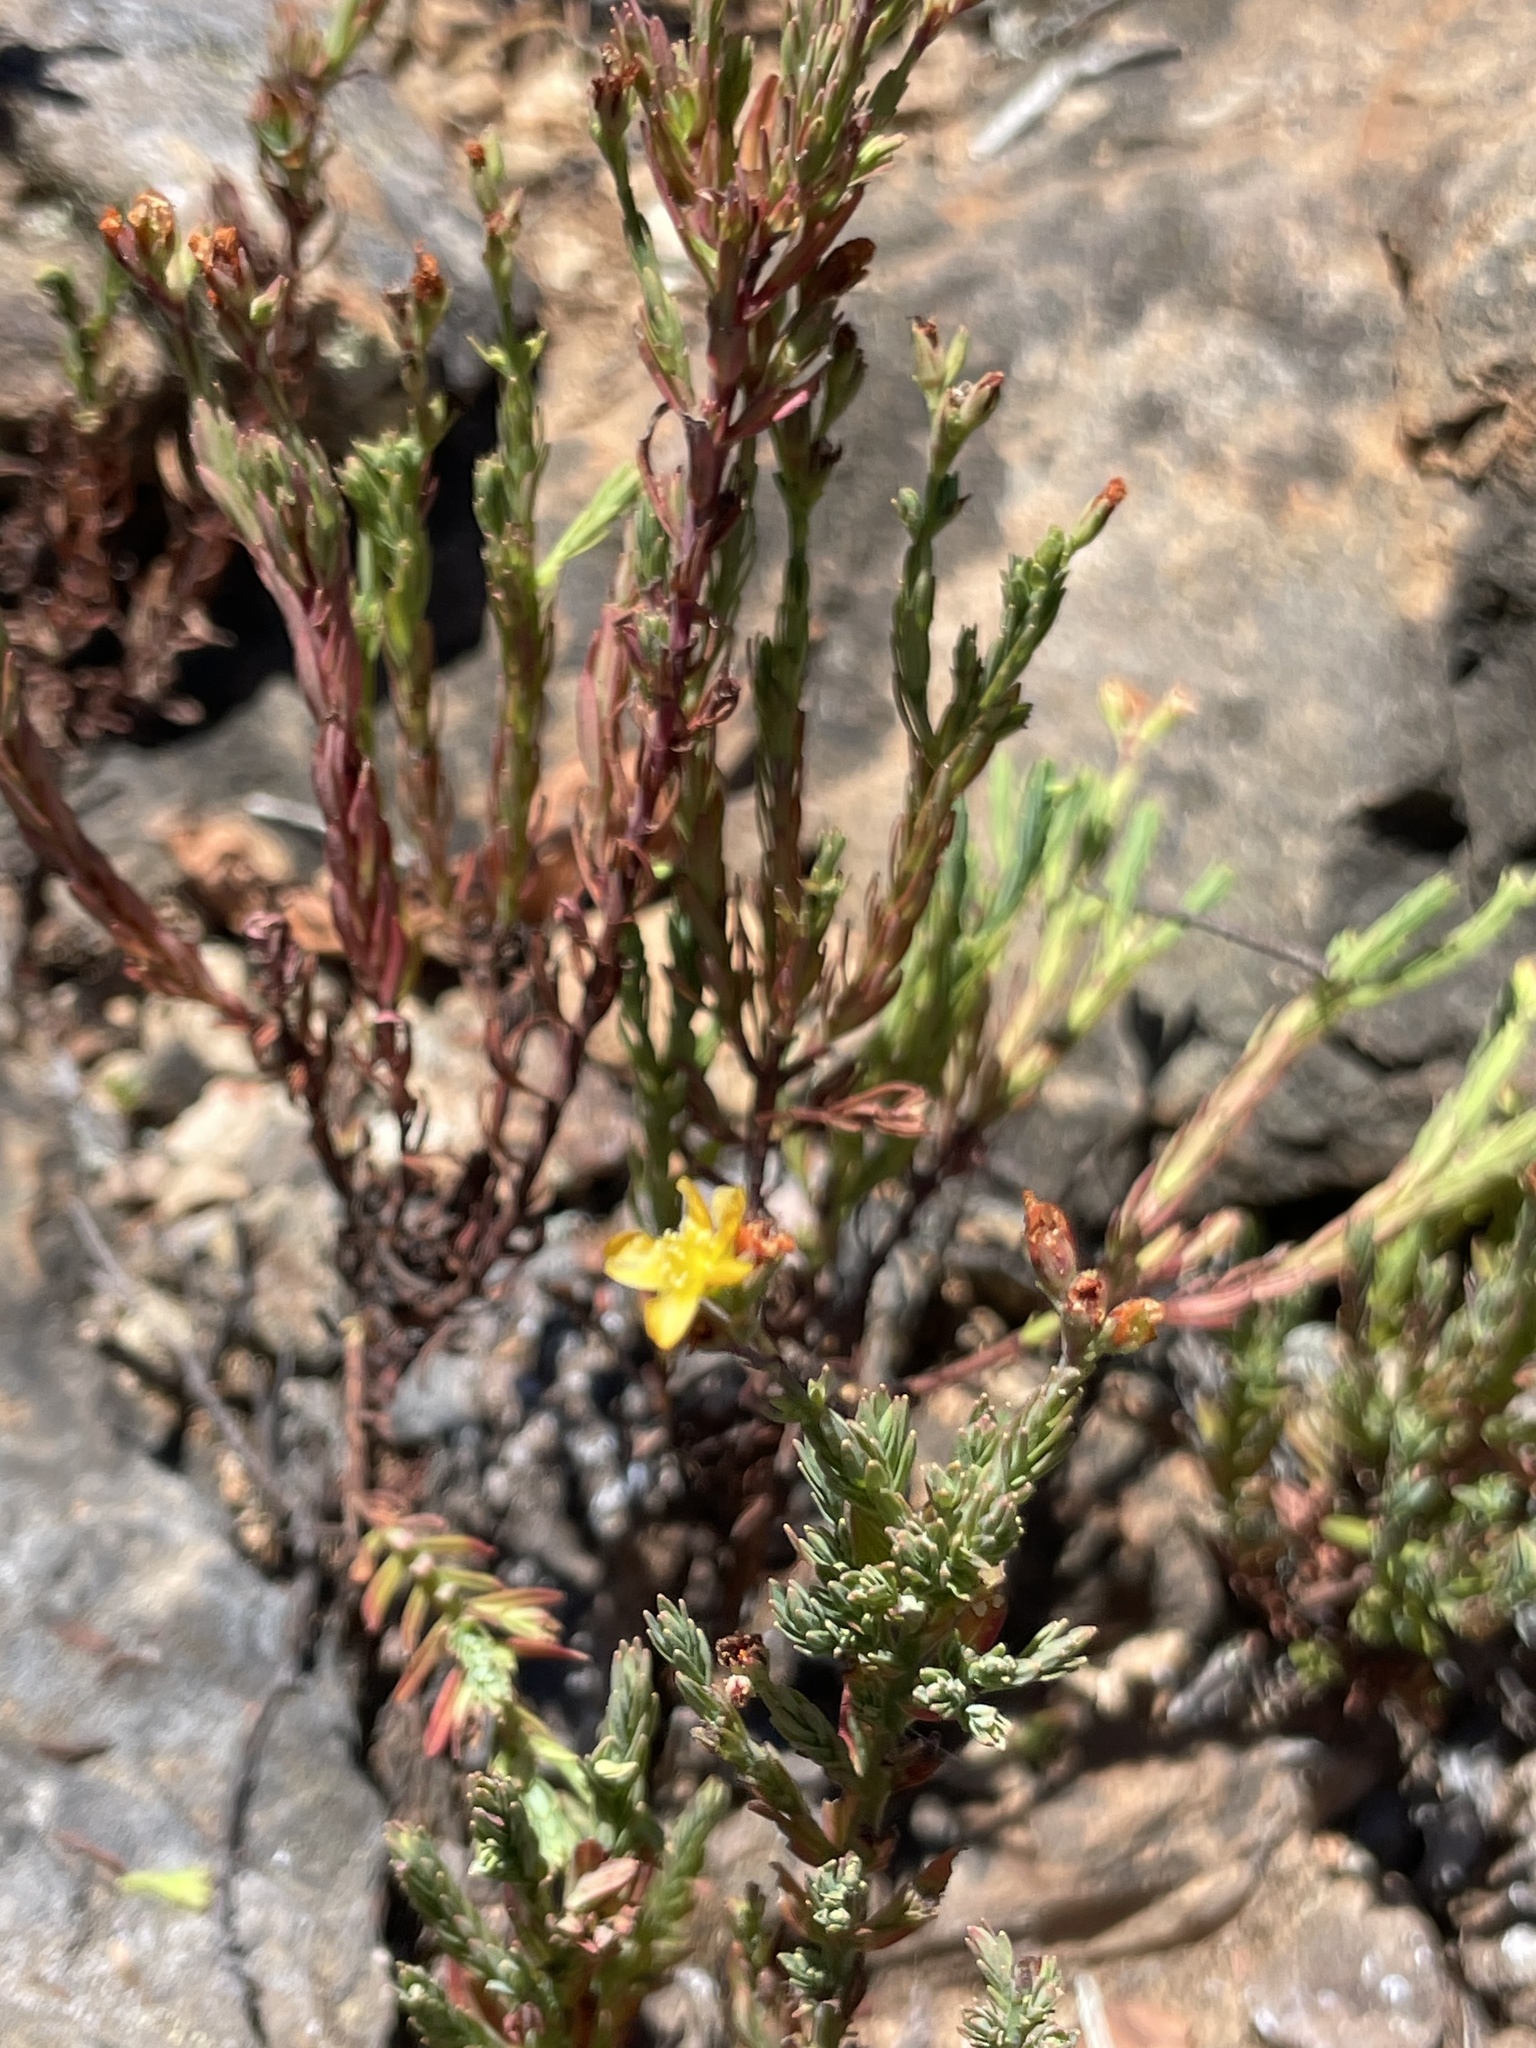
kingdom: Plantae
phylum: Tracheophyta
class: Magnoliopsida
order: Malpighiales
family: Hypericaceae
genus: Hypericum
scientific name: Hypericum eastwoodianum
